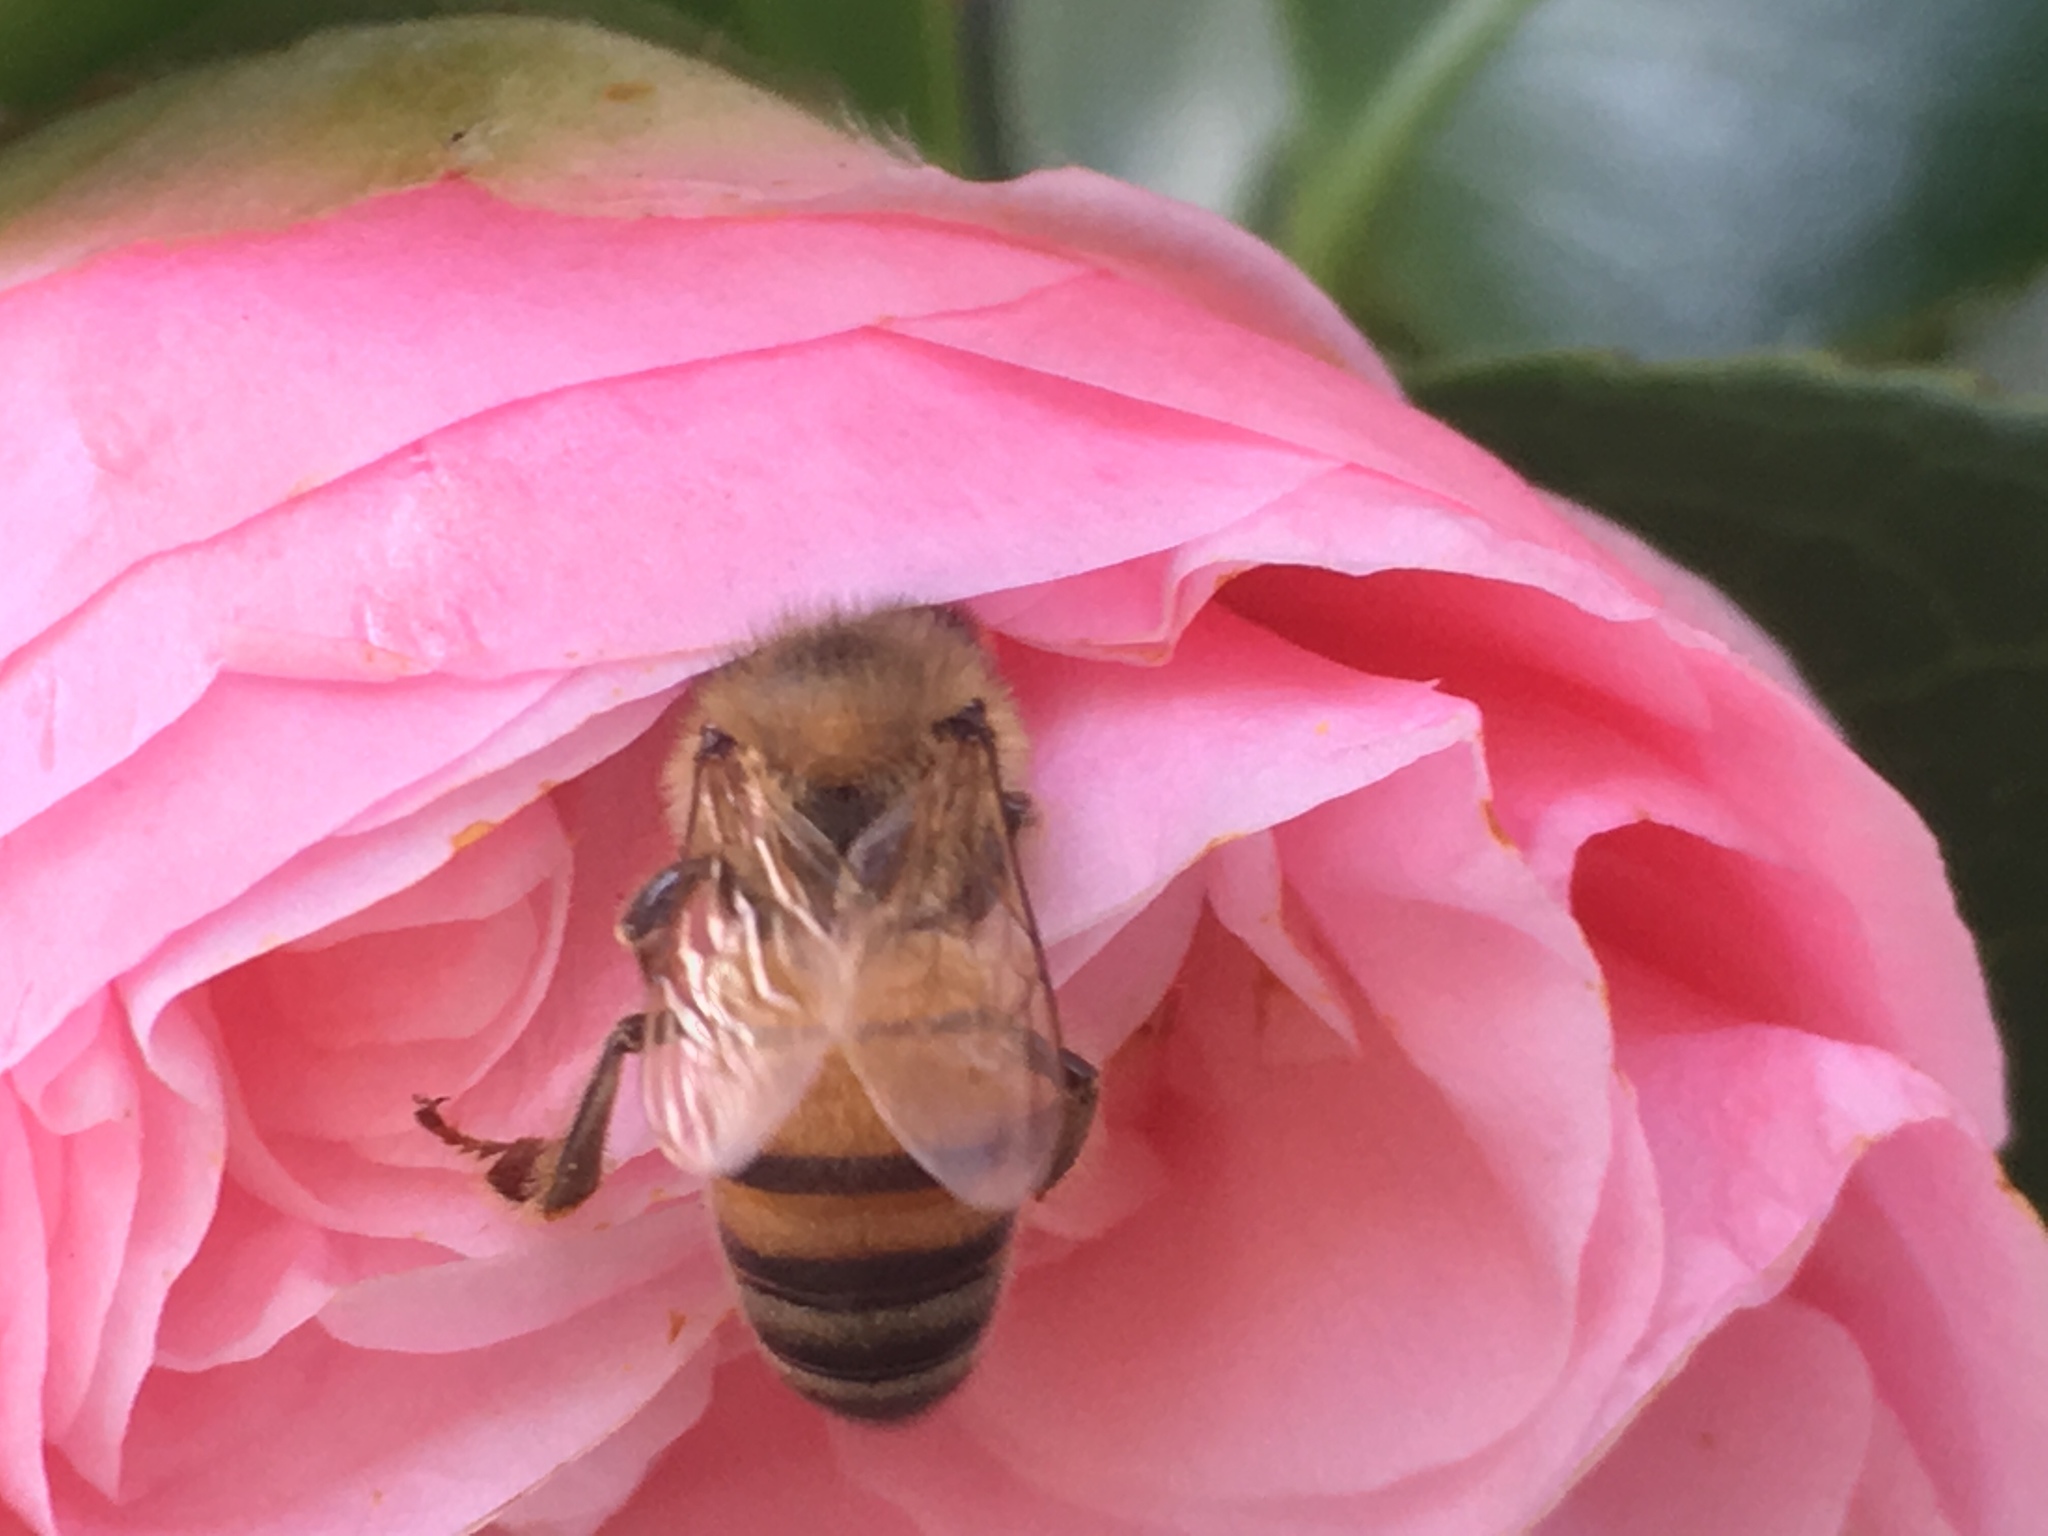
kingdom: Animalia
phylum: Arthropoda
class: Insecta
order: Hymenoptera
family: Apidae
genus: Apis
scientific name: Apis mellifera
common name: Honey bee
